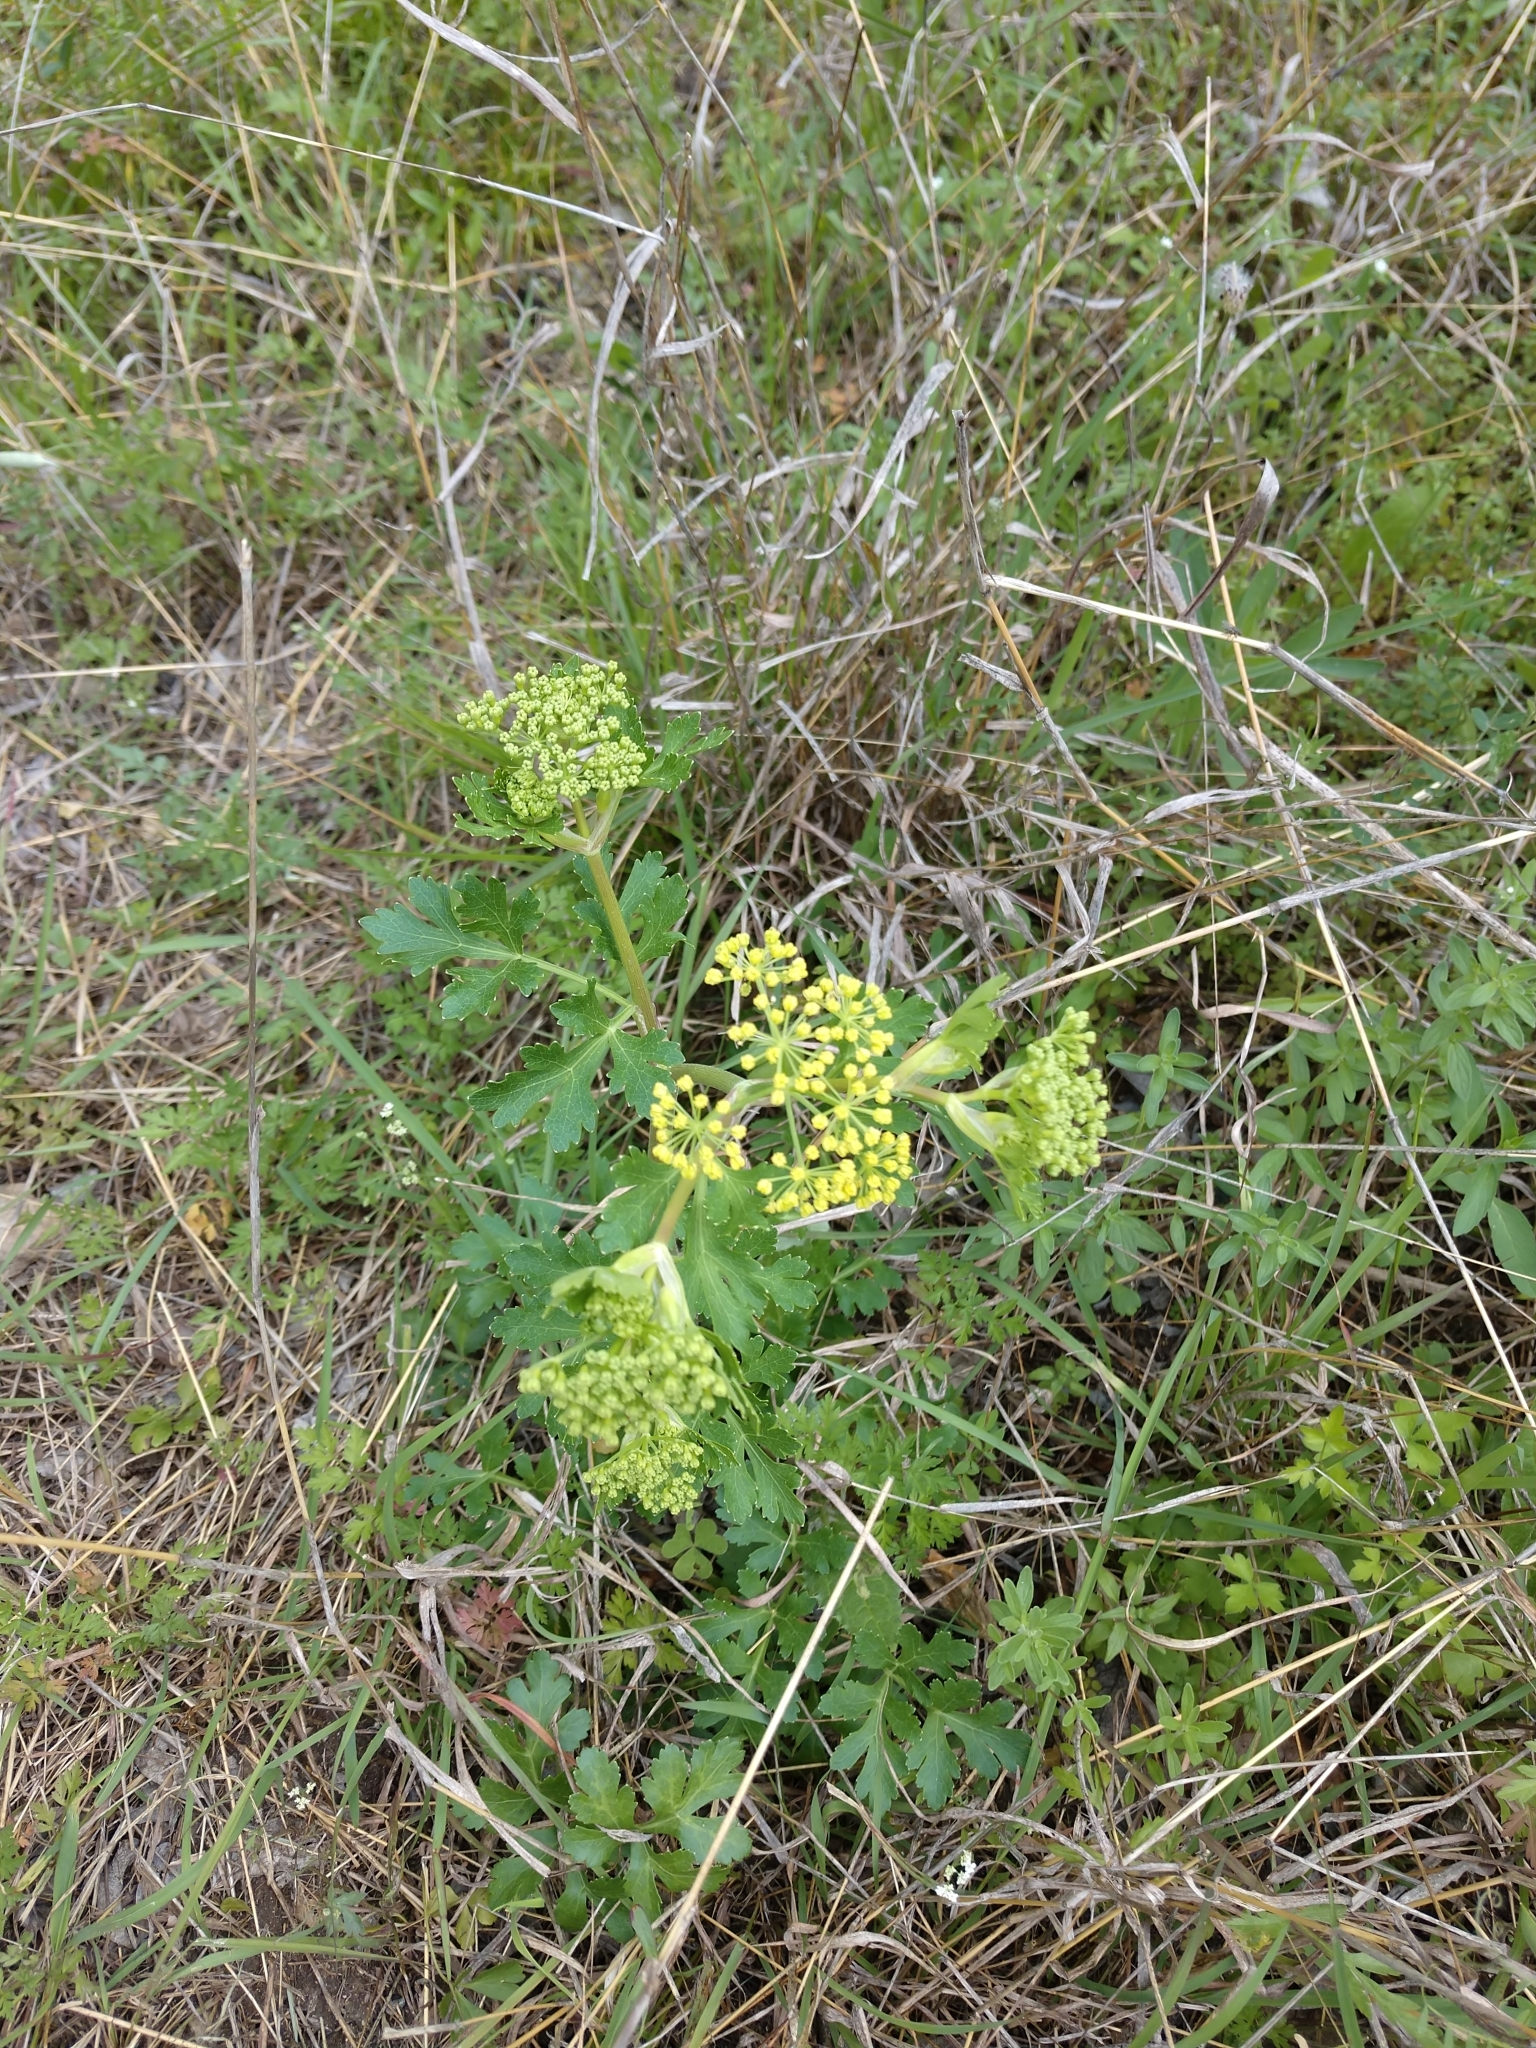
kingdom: Plantae
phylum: Tracheophyta
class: Magnoliopsida
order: Apiales
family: Apiaceae
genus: Polytaenia
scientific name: Polytaenia texana
